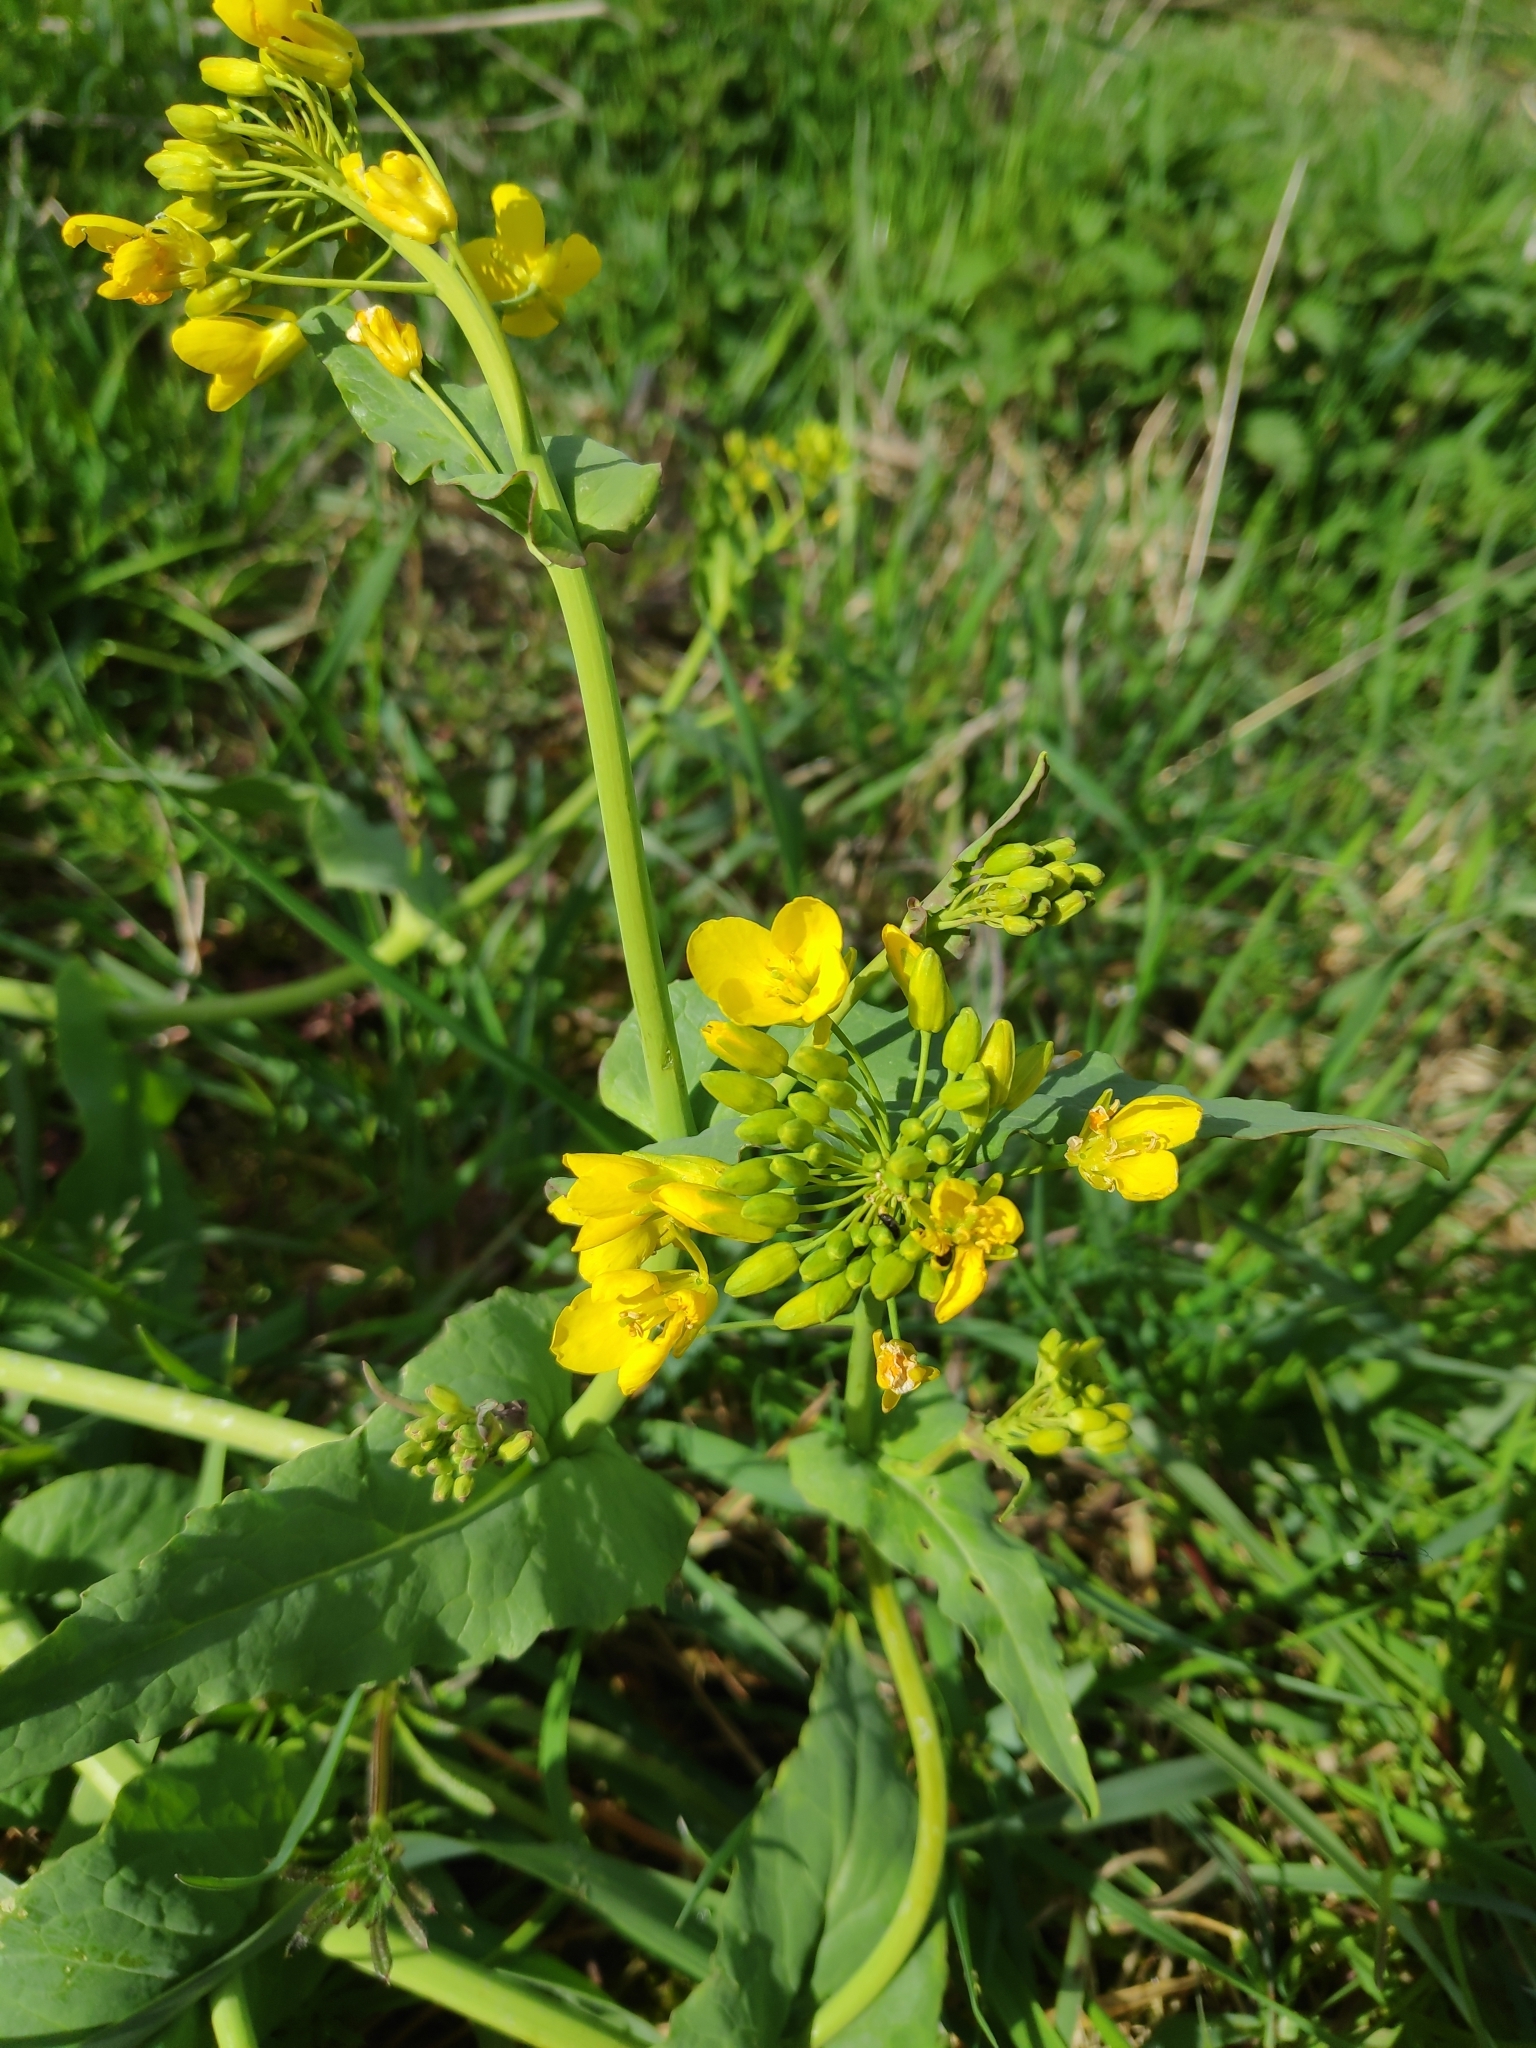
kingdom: Plantae
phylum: Tracheophyta
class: Magnoliopsida
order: Brassicales
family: Brassicaceae
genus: Brassica
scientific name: Brassica rapa
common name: Field mustard
